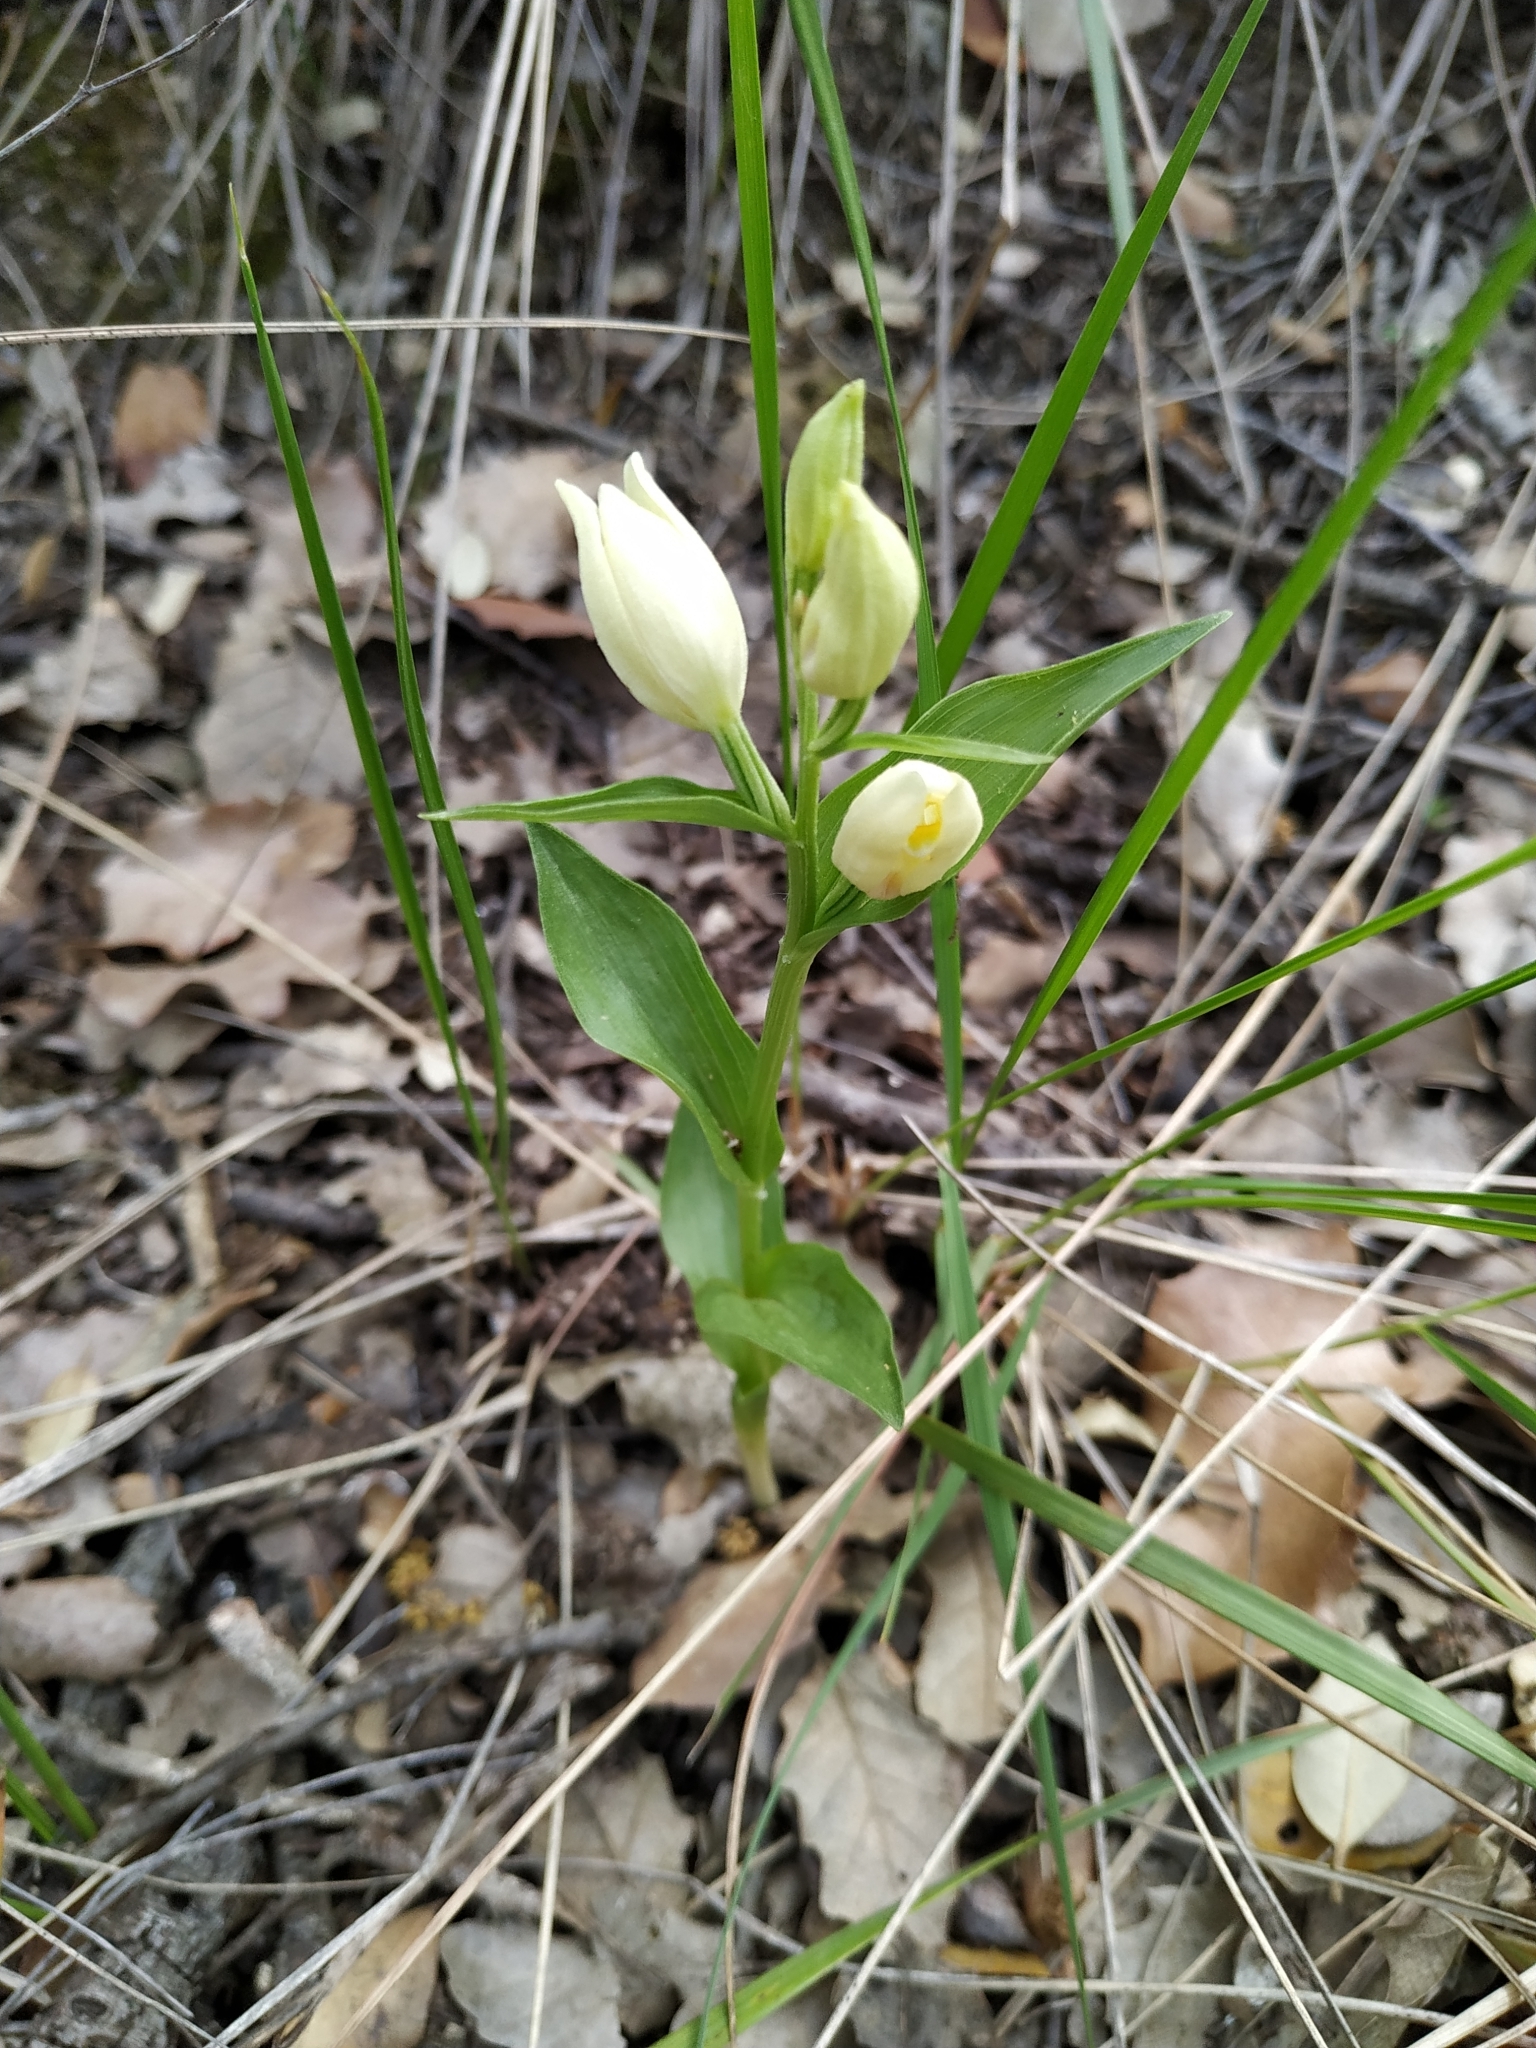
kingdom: Plantae
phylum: Tracheophyta
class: Liliopsida
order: Asparagales
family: Orchidaceae
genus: Cephalanthera
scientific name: Cephalanthera damasonium
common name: White helleborine
